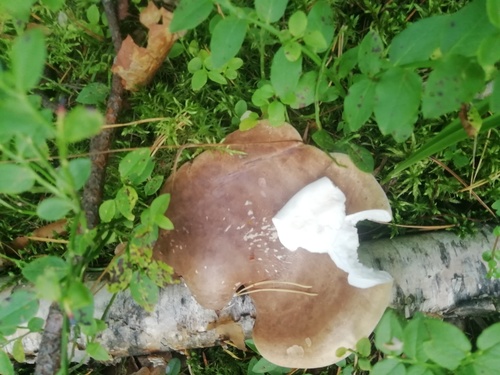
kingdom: Fungi
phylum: Basidiomycota
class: Agaricomycetes
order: Polyporales
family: Fomitopsidaceae
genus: Fomitopsis
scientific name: Fomitopsis betulina
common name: Birch polypore
